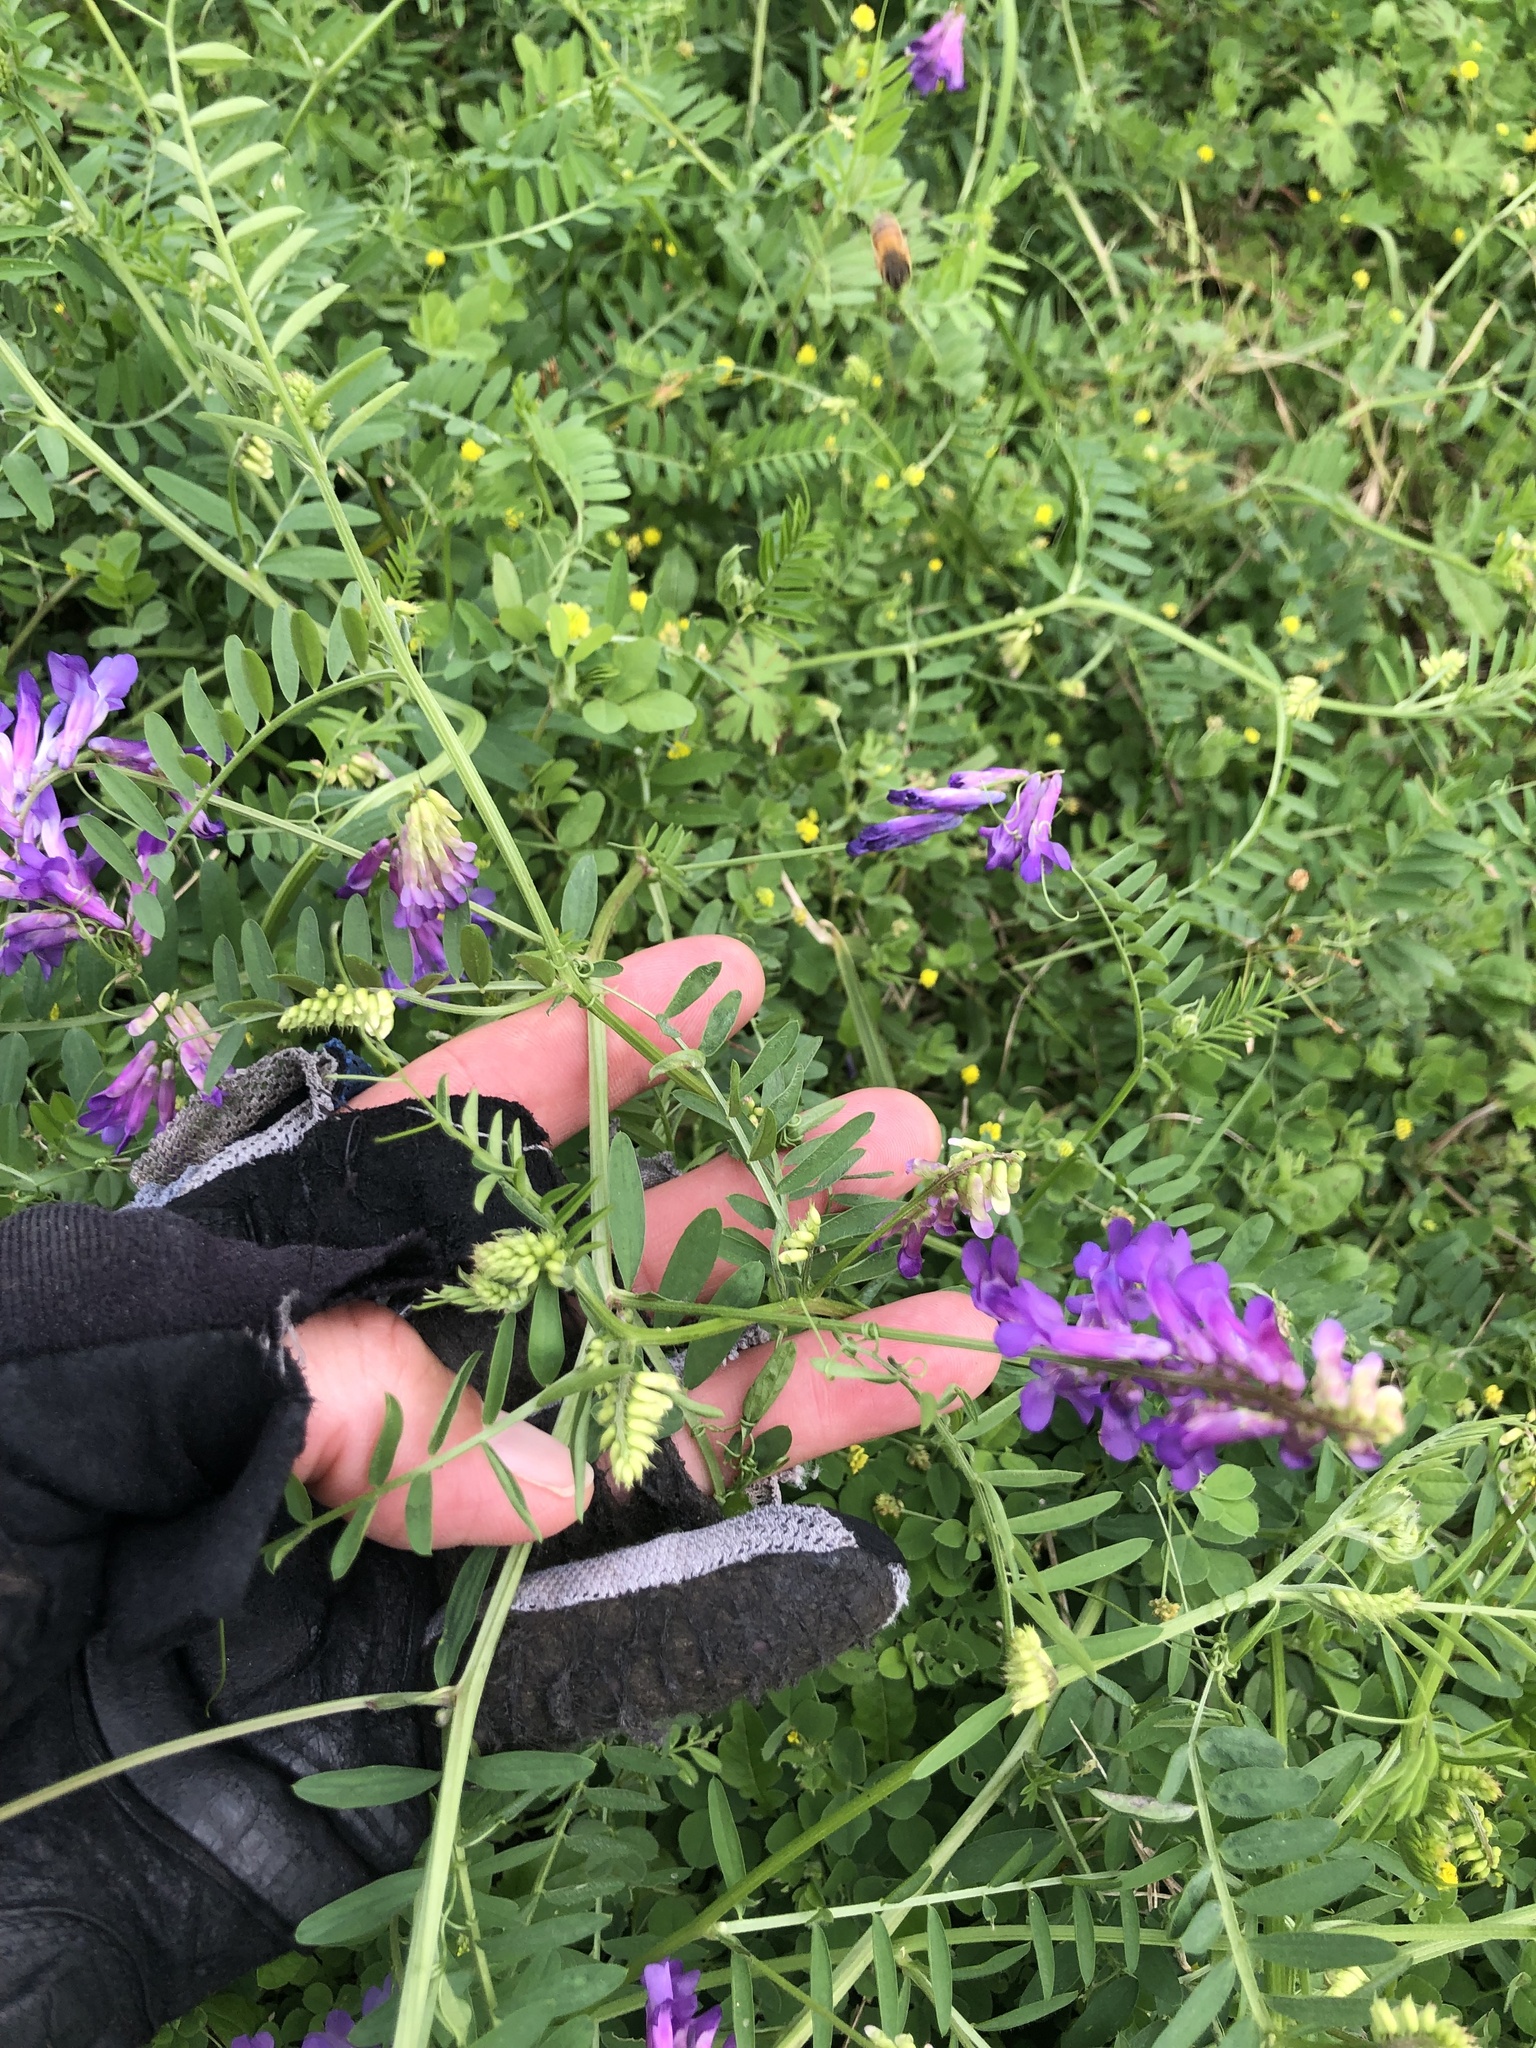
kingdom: Plantae
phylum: Tracheophyta
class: Magnoliopsida
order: Fabales
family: Fabaceae
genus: Vicia
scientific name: Vicia villosa
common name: Fodder vetch
